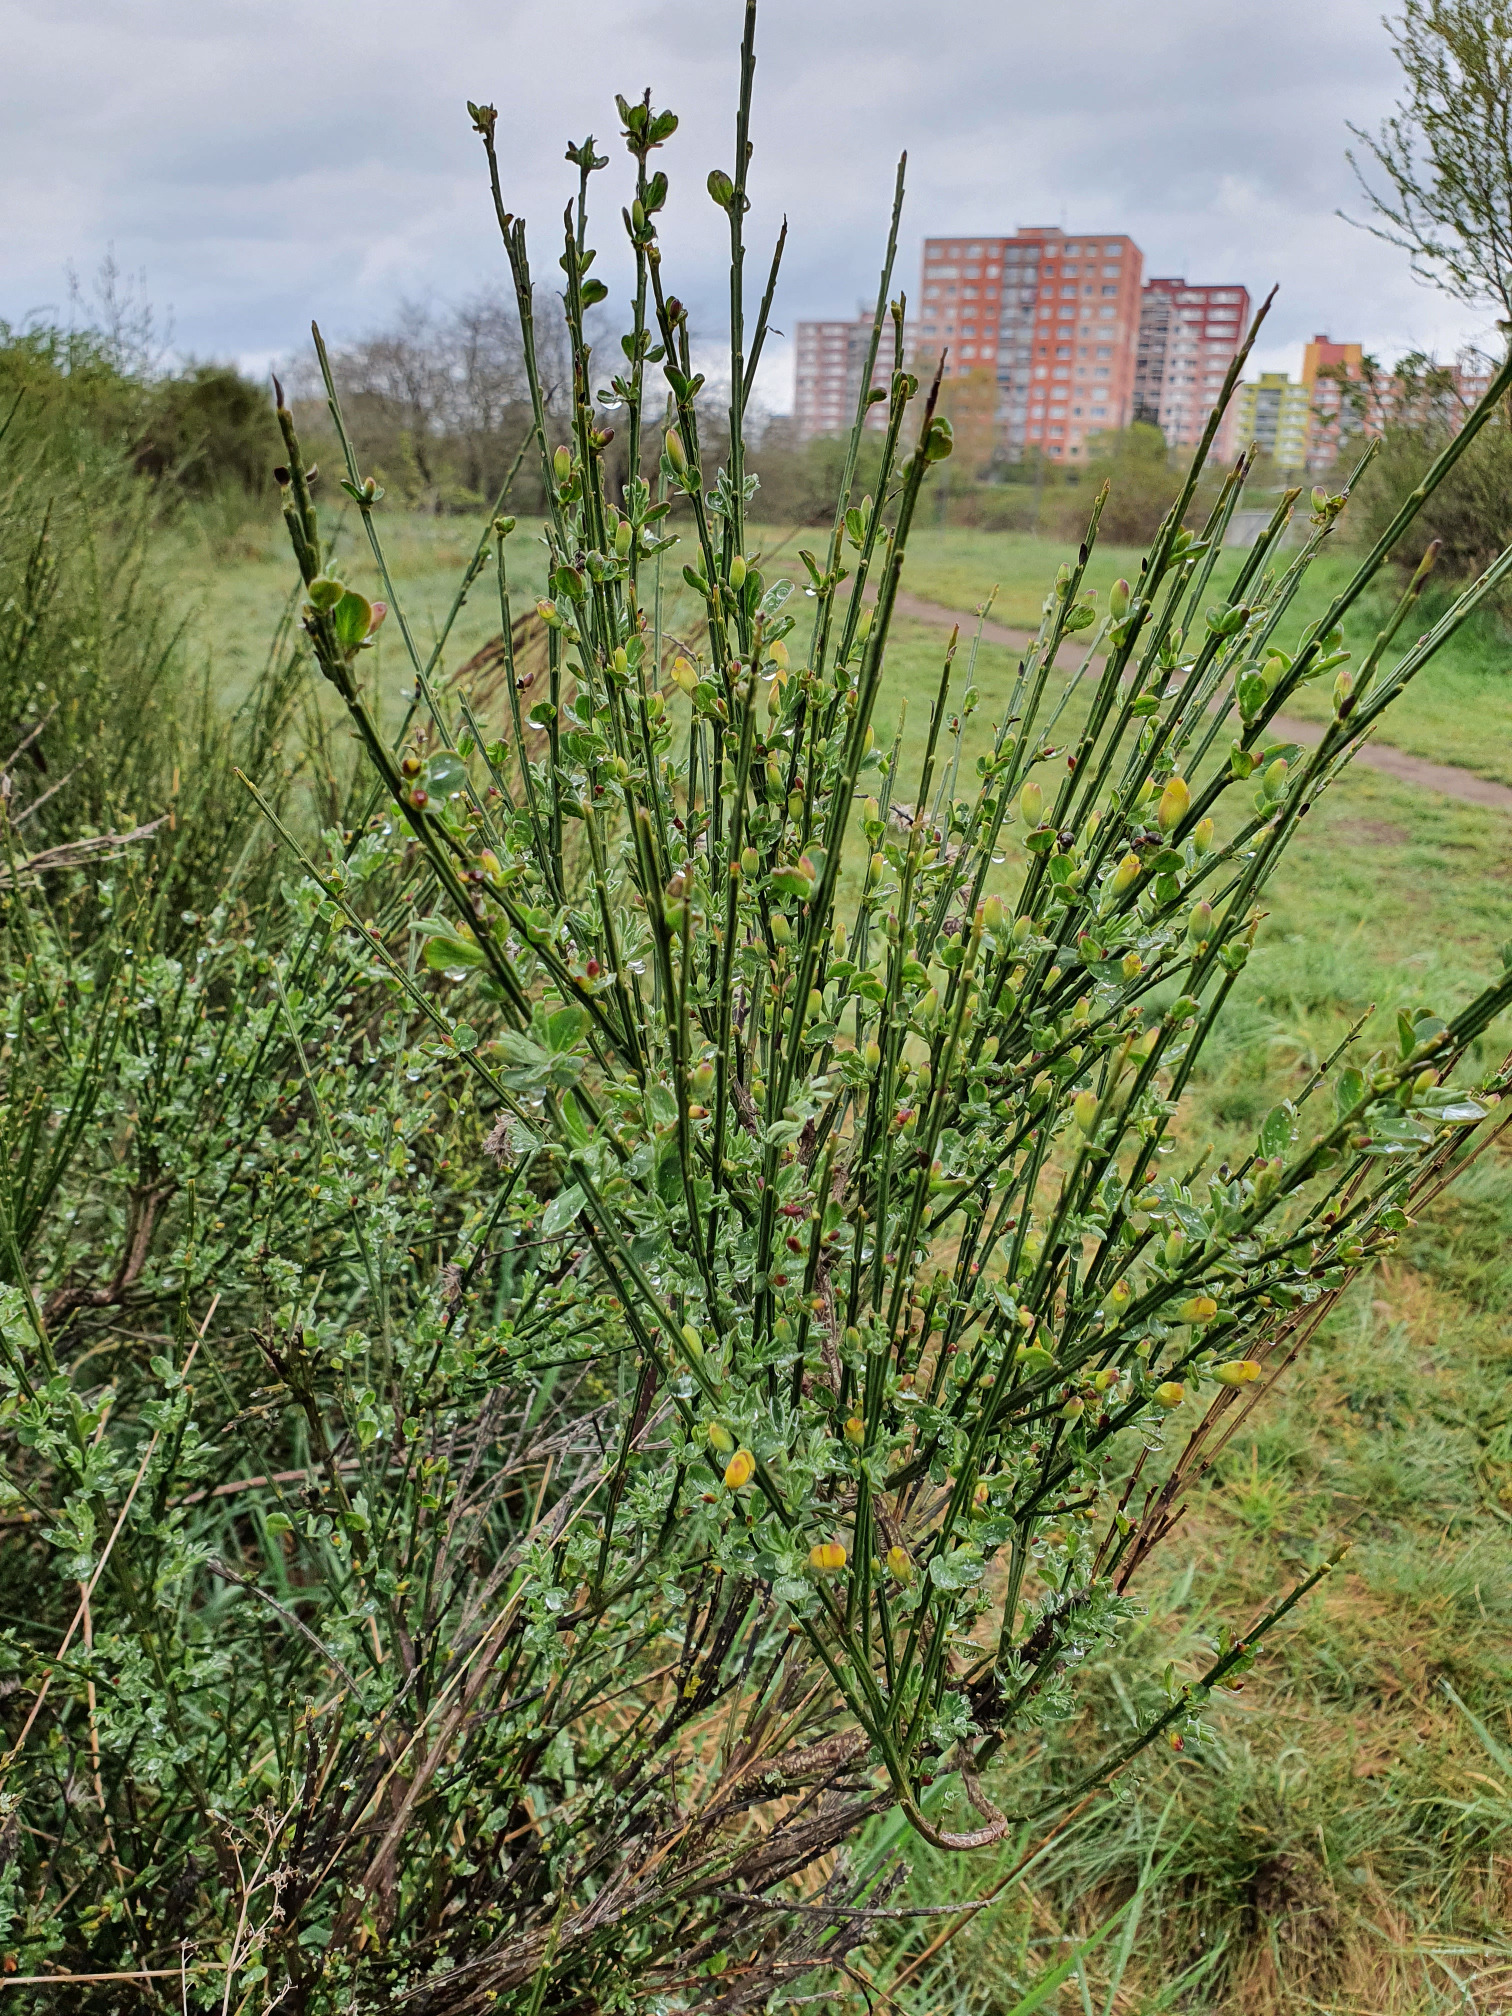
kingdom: Plantae
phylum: Tracheophyta
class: Magnoliopsida
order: Fabales
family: Fabaceae
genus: Cytisus
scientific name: Cytisus scoparius
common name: Scotch broom
